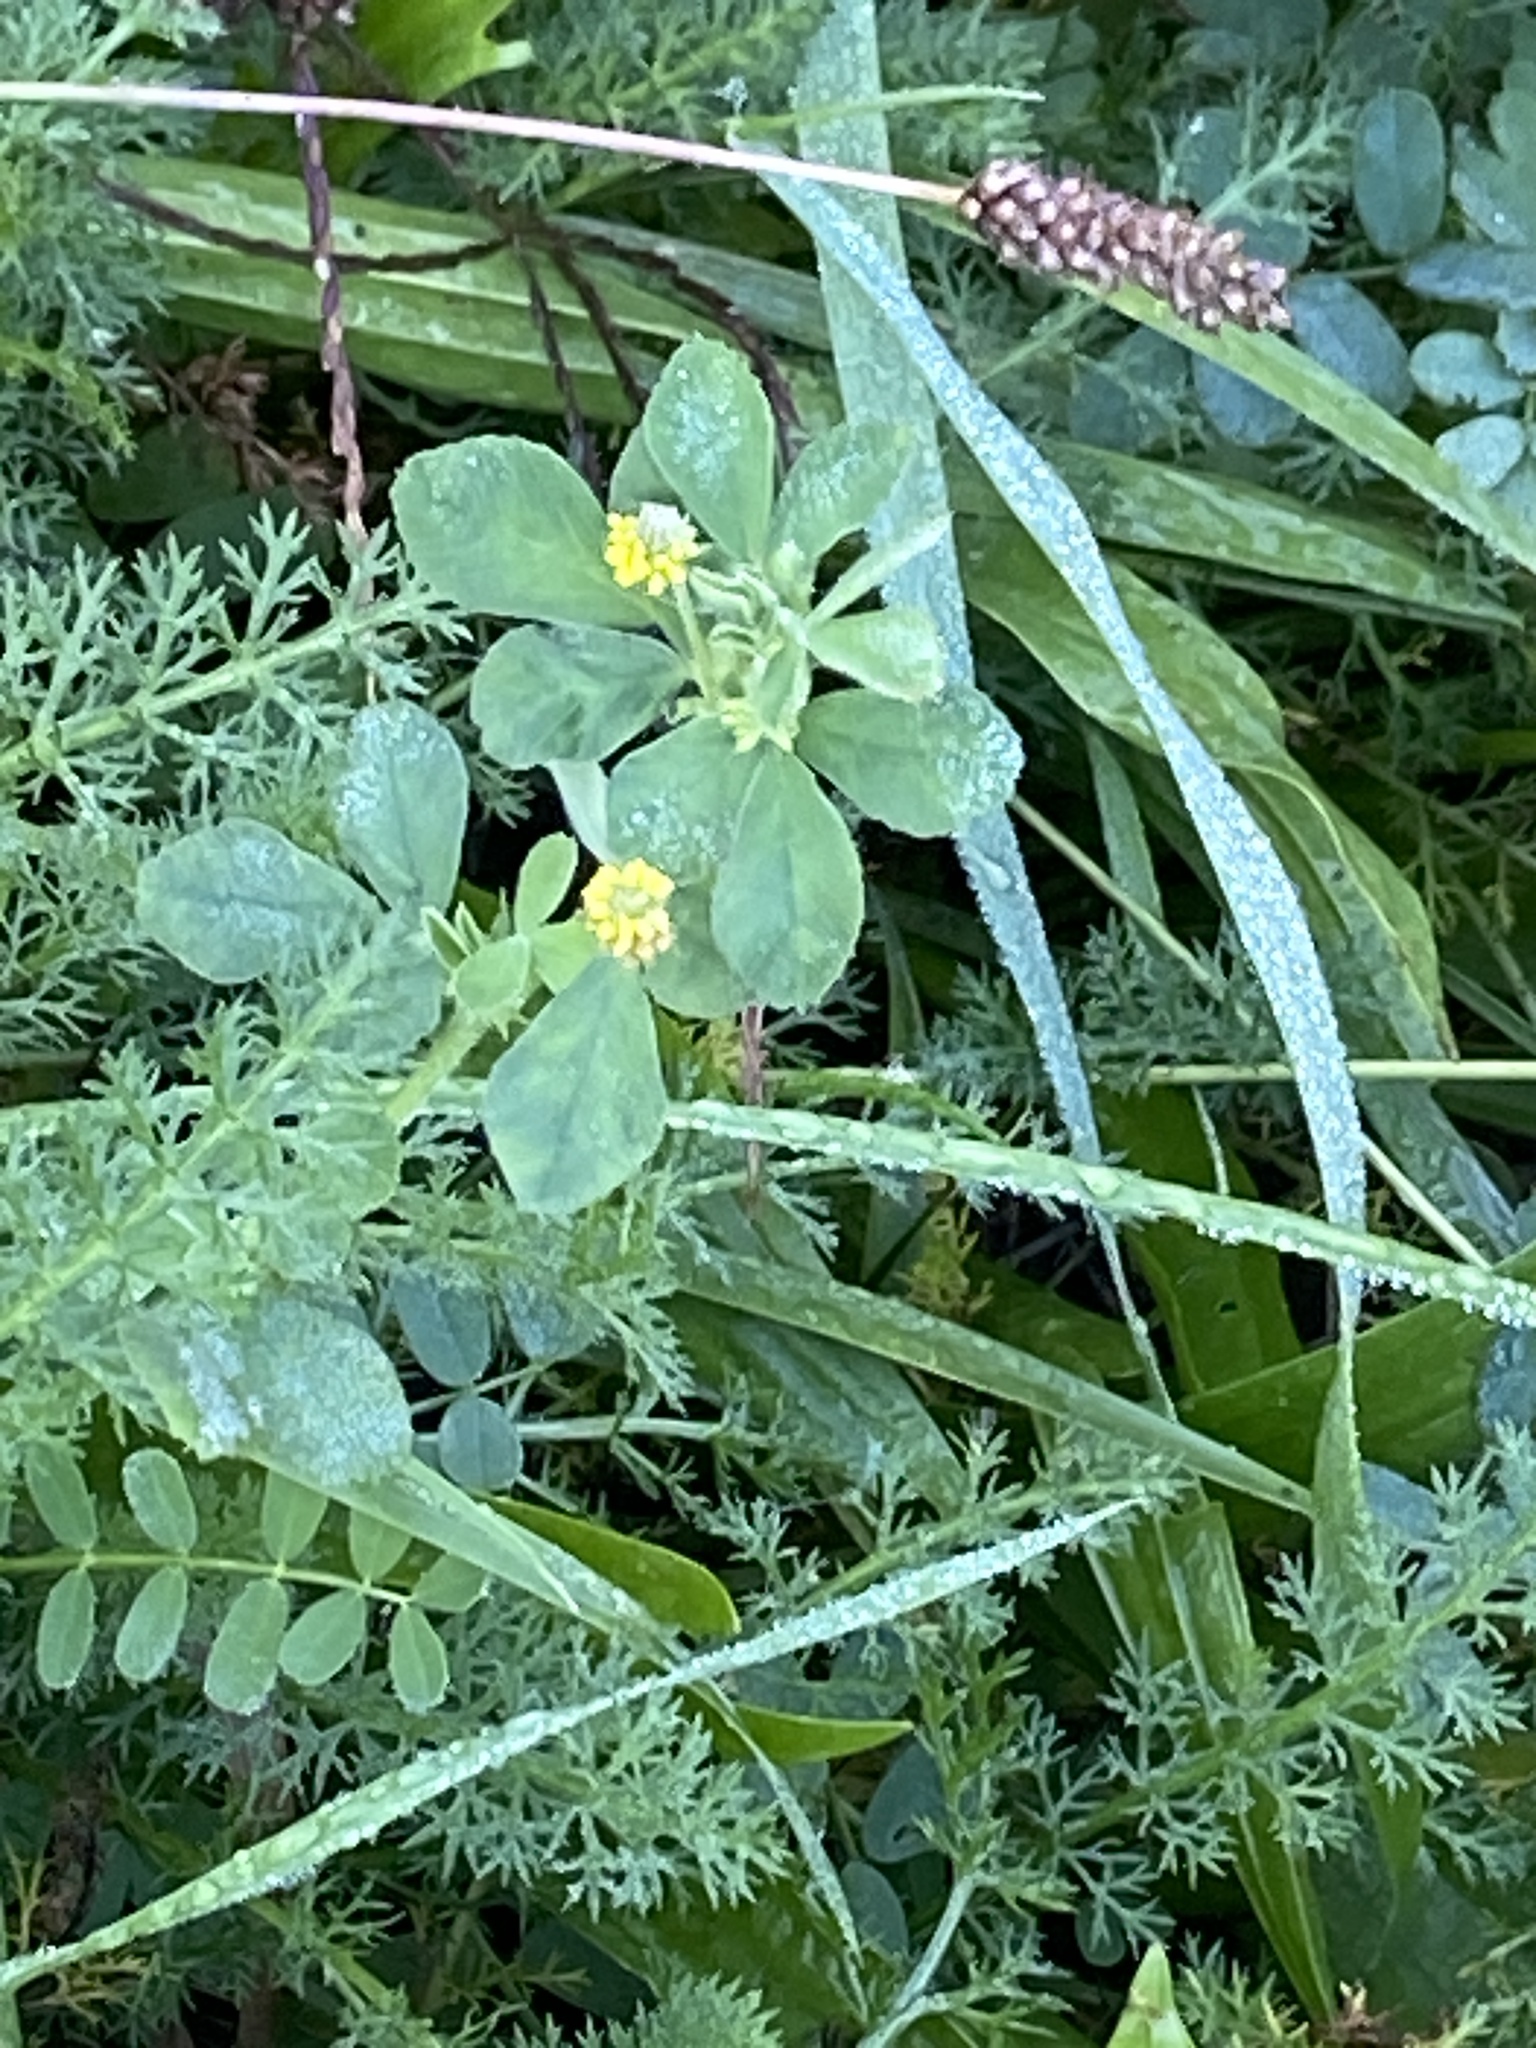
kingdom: Plantae
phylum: Tracheophyta
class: Magnoliopsida
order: Fabales
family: Fabaceae
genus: Medicago
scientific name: Medicago lupulina
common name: Black medick
